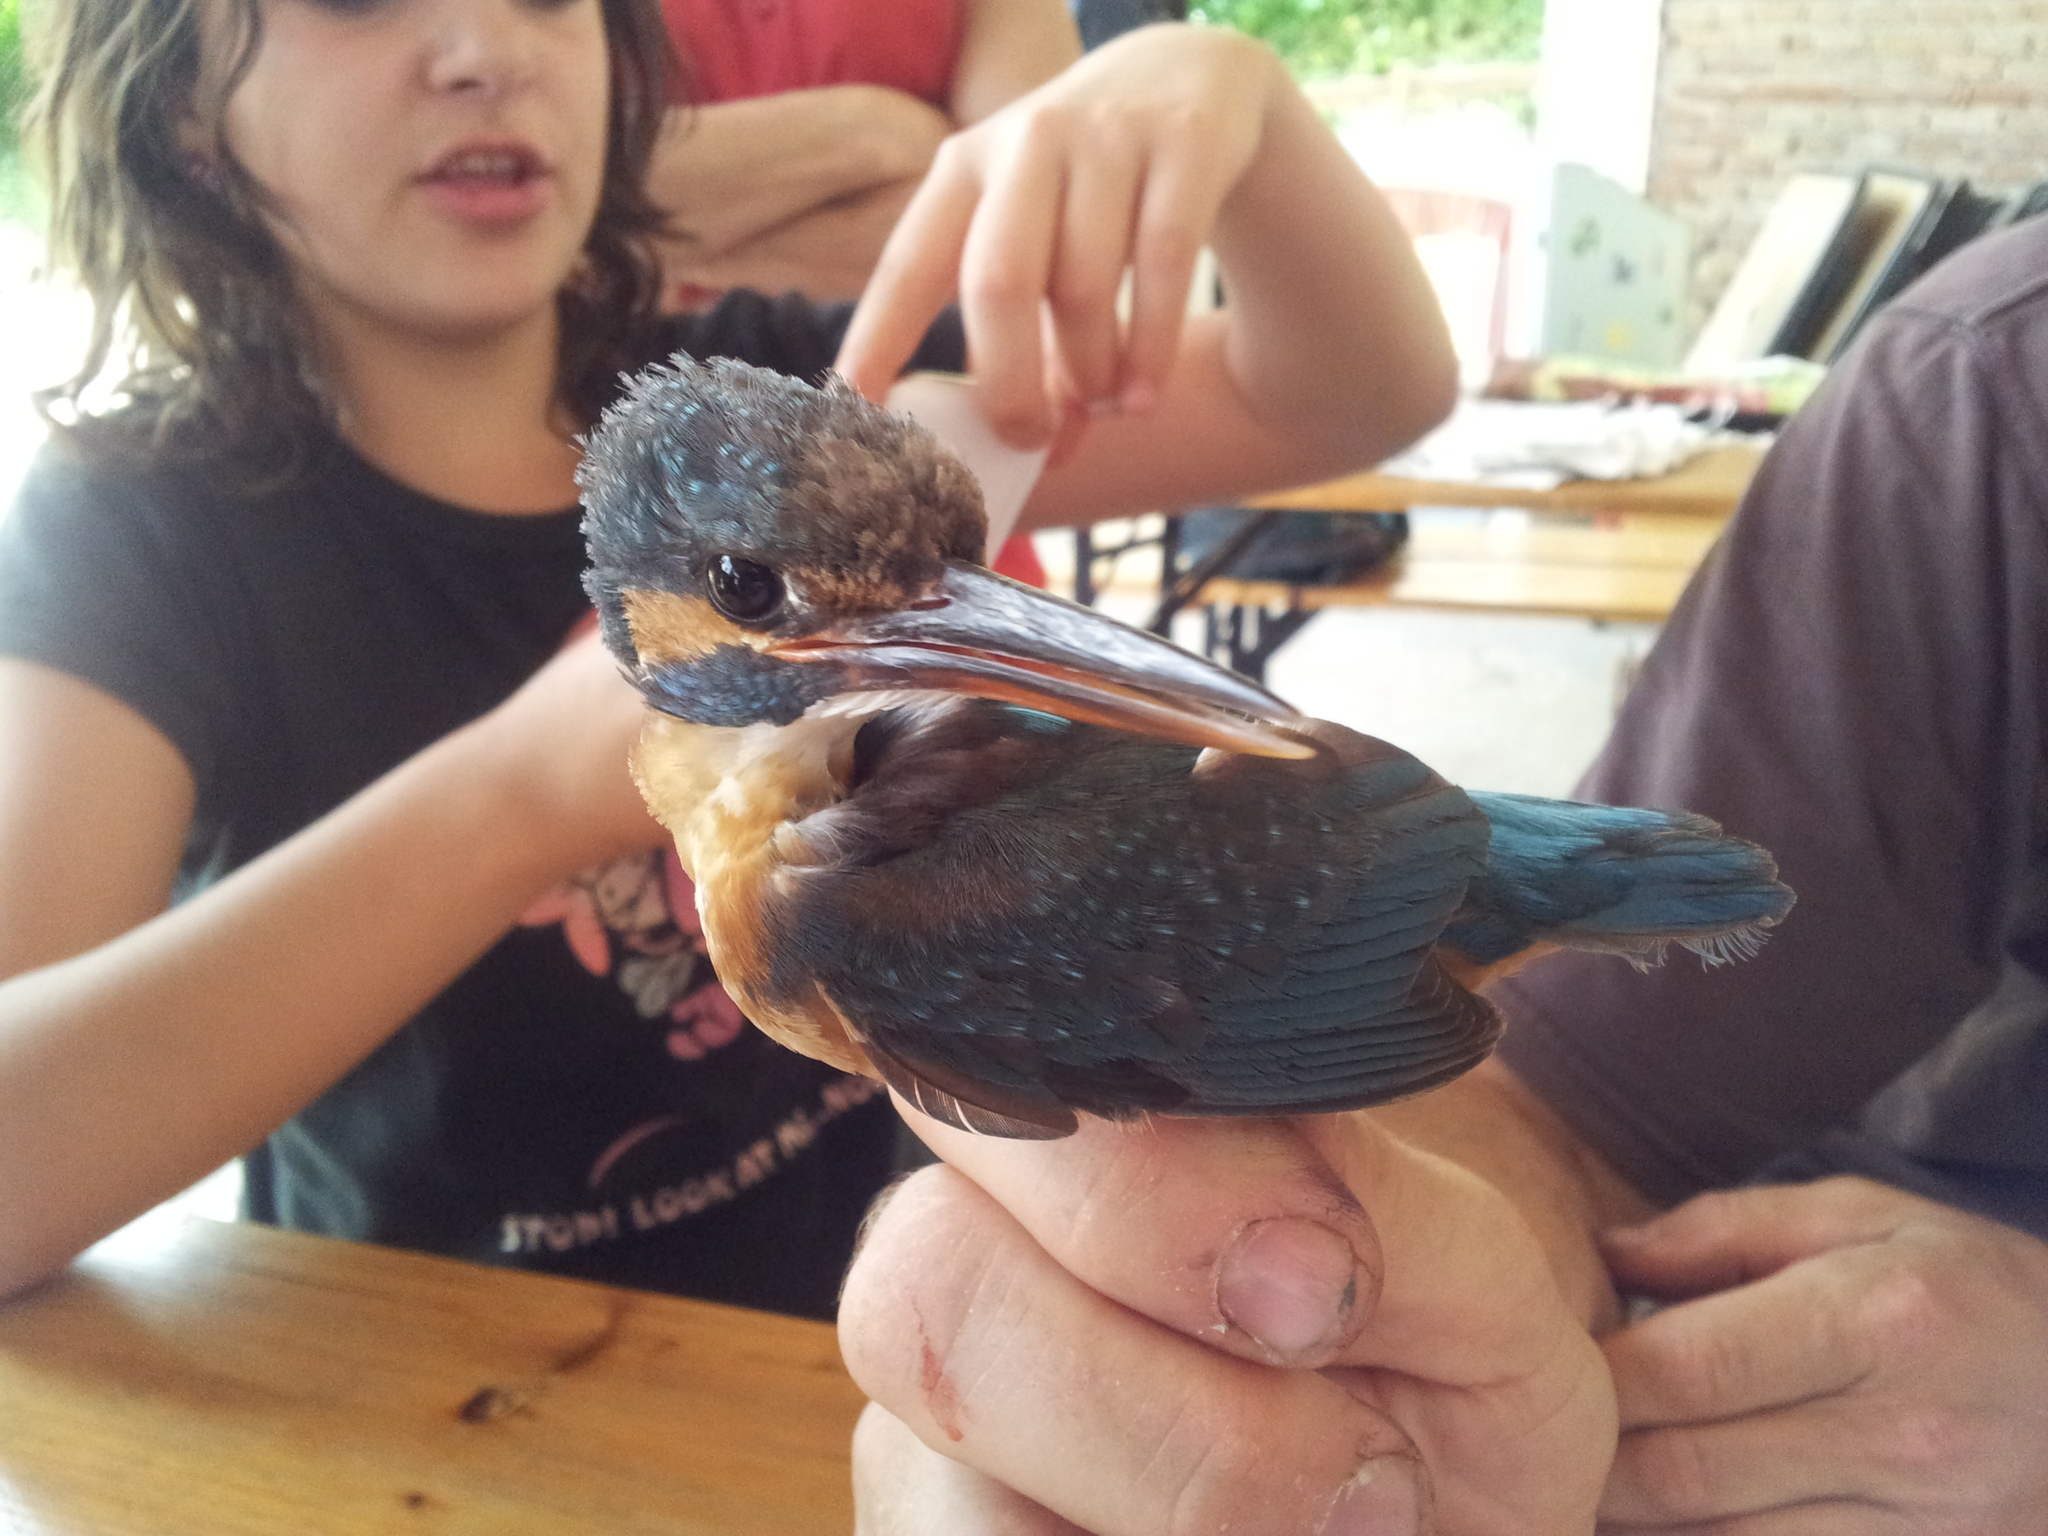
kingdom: Animalia
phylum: Chordata
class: Aves
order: Coraciiformes
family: Alcedinidae
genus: Alcedo
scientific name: Alcedo atthis
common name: Common kingfisher
